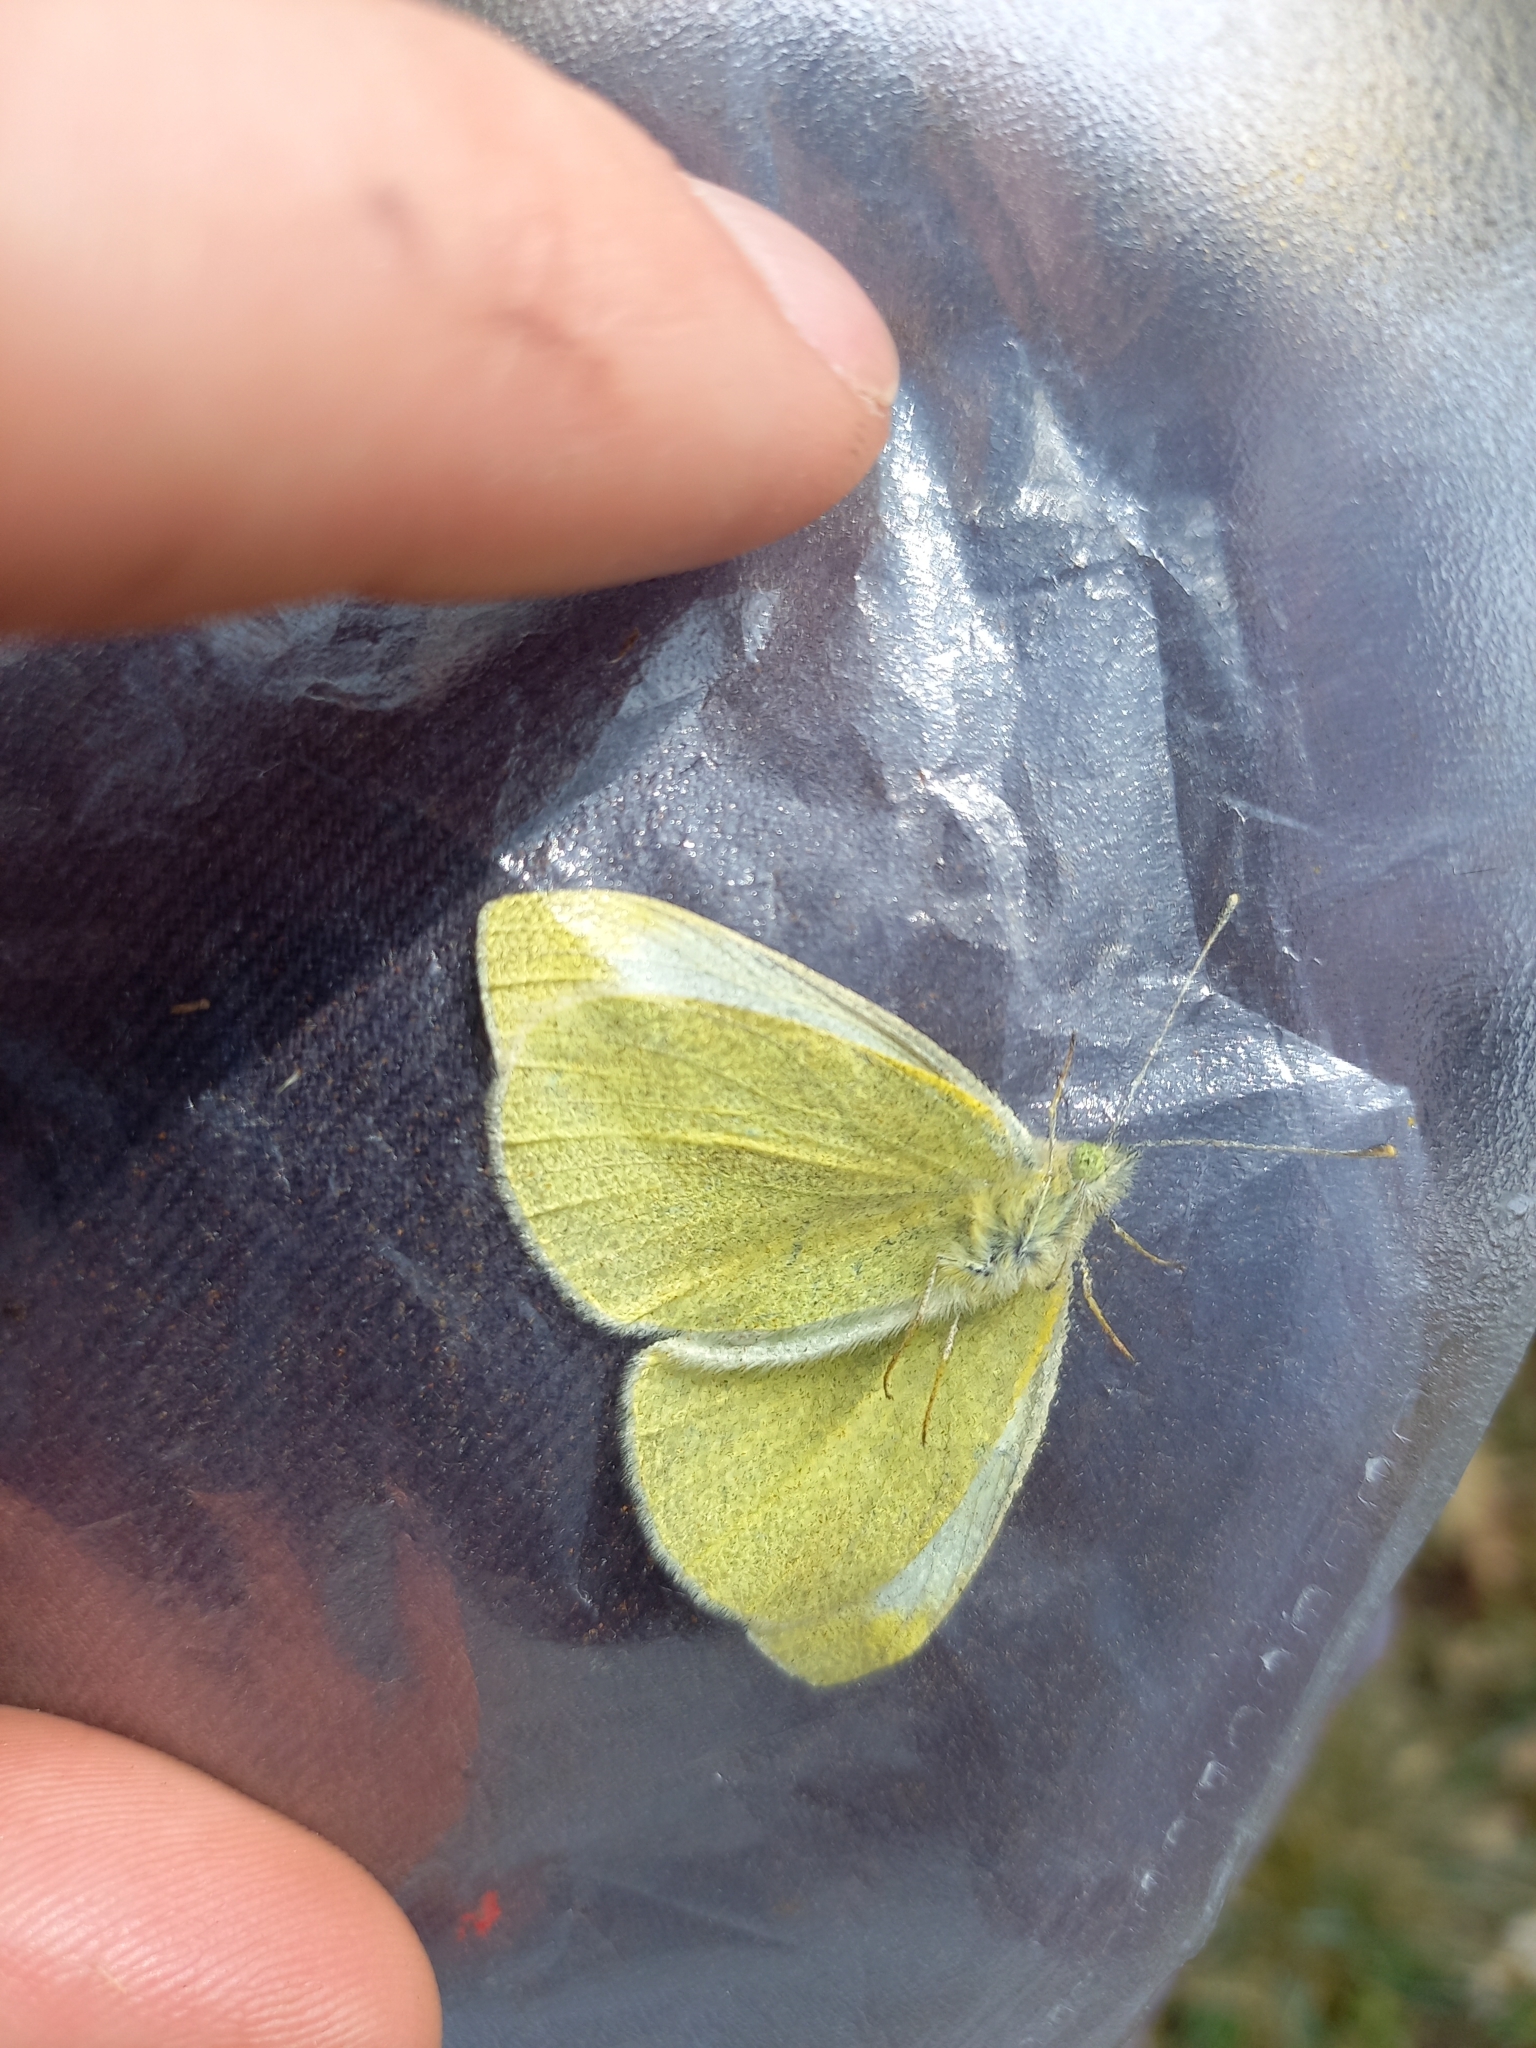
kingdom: Animalia
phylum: Arthropoda
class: Insecta
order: Lepidoptera
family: Pieridae
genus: Pieris
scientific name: Pieris rapae
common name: Small white
